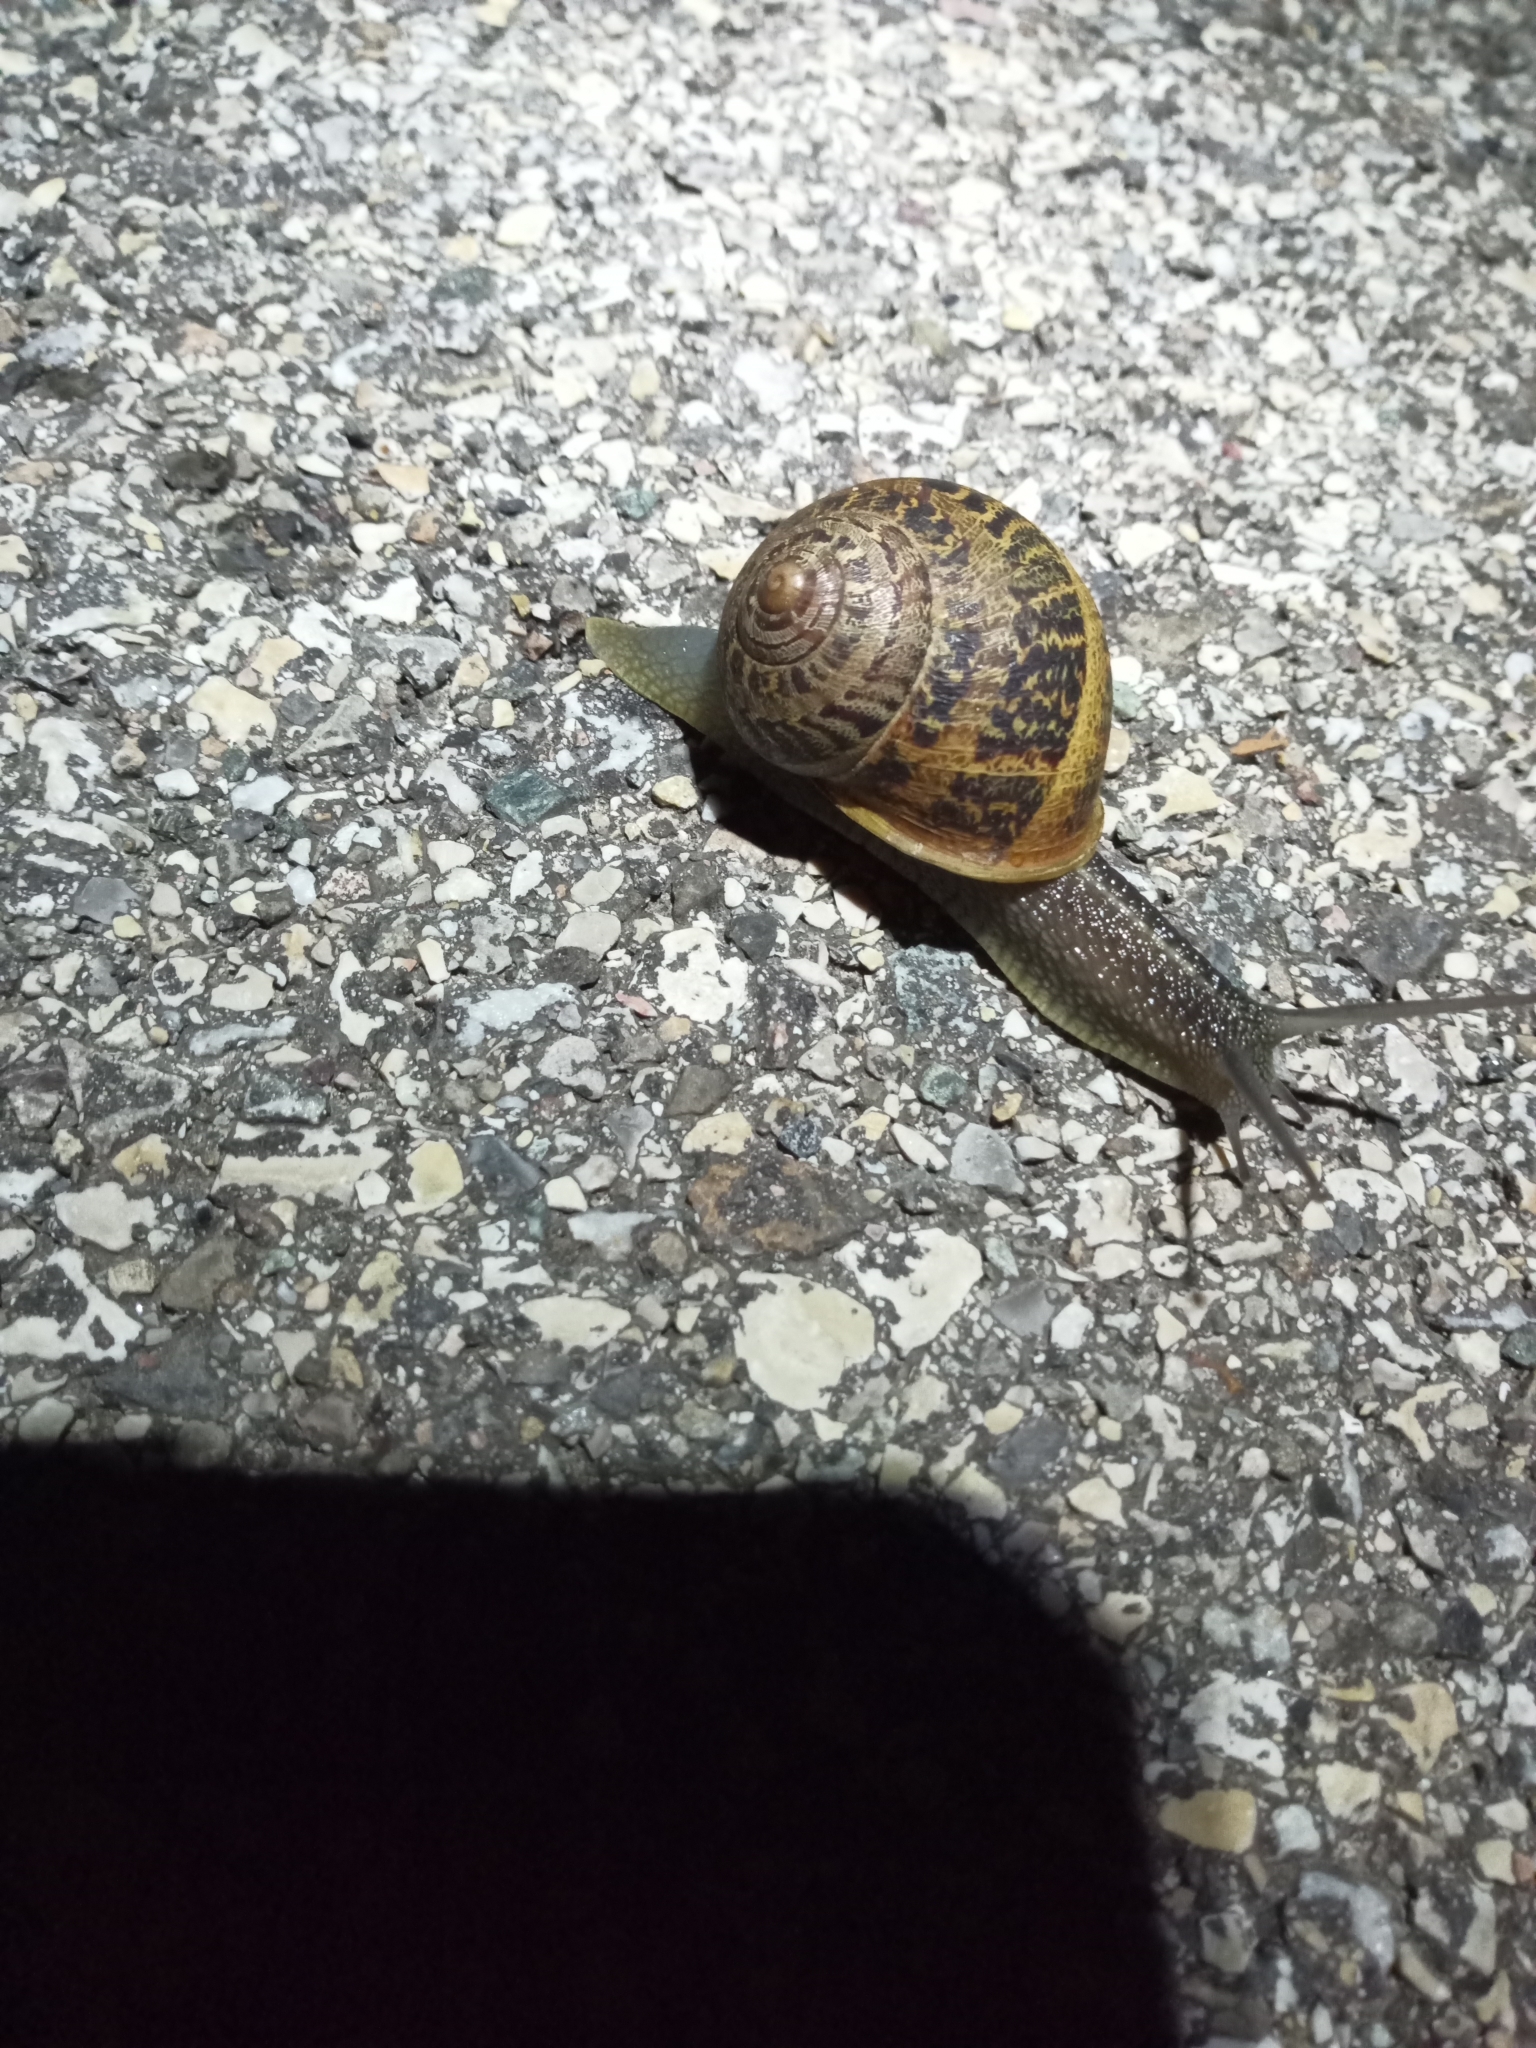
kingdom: Animalia
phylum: Mollusca
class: Gastropoda
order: Stylommatophora
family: Helicidae
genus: Cornu
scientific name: Cornu aspersum
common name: Brown garden snail
